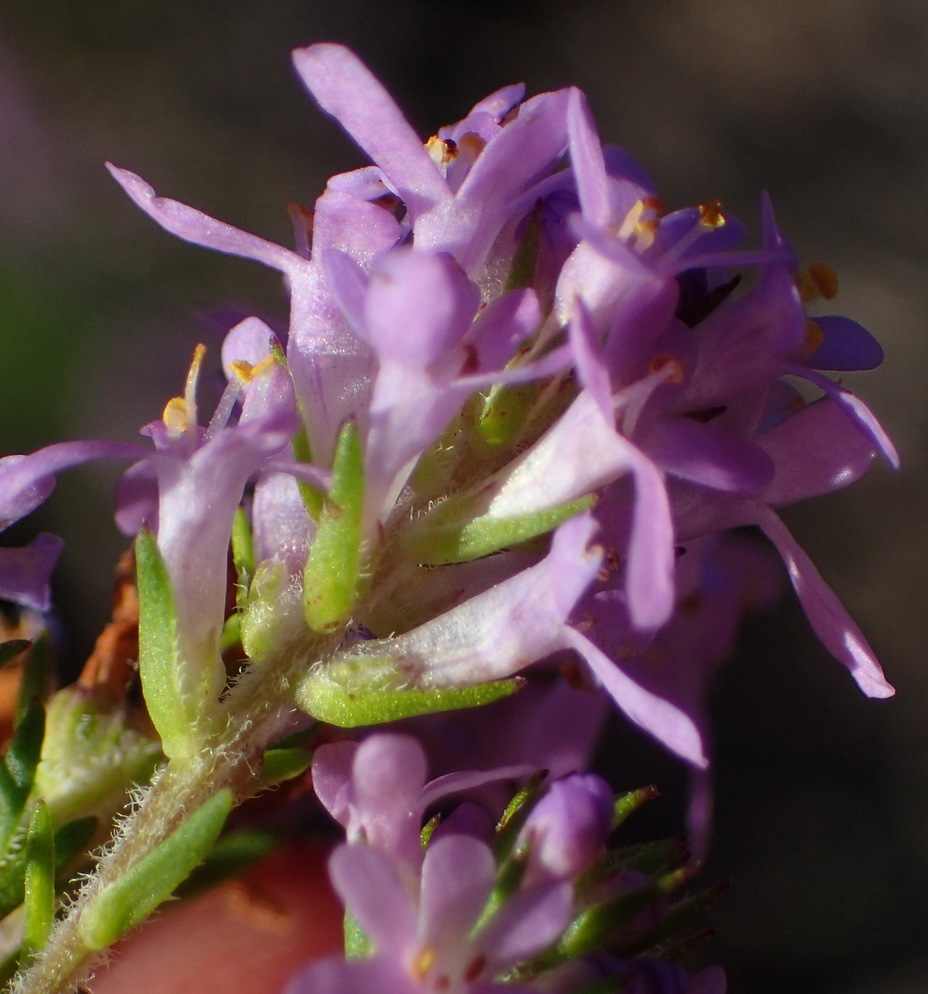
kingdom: Plantae
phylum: Tracheophyta
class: Magnoliopsida
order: Lamiales
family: Scrophulariaceae
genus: Selago
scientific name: Selago villicaulis
